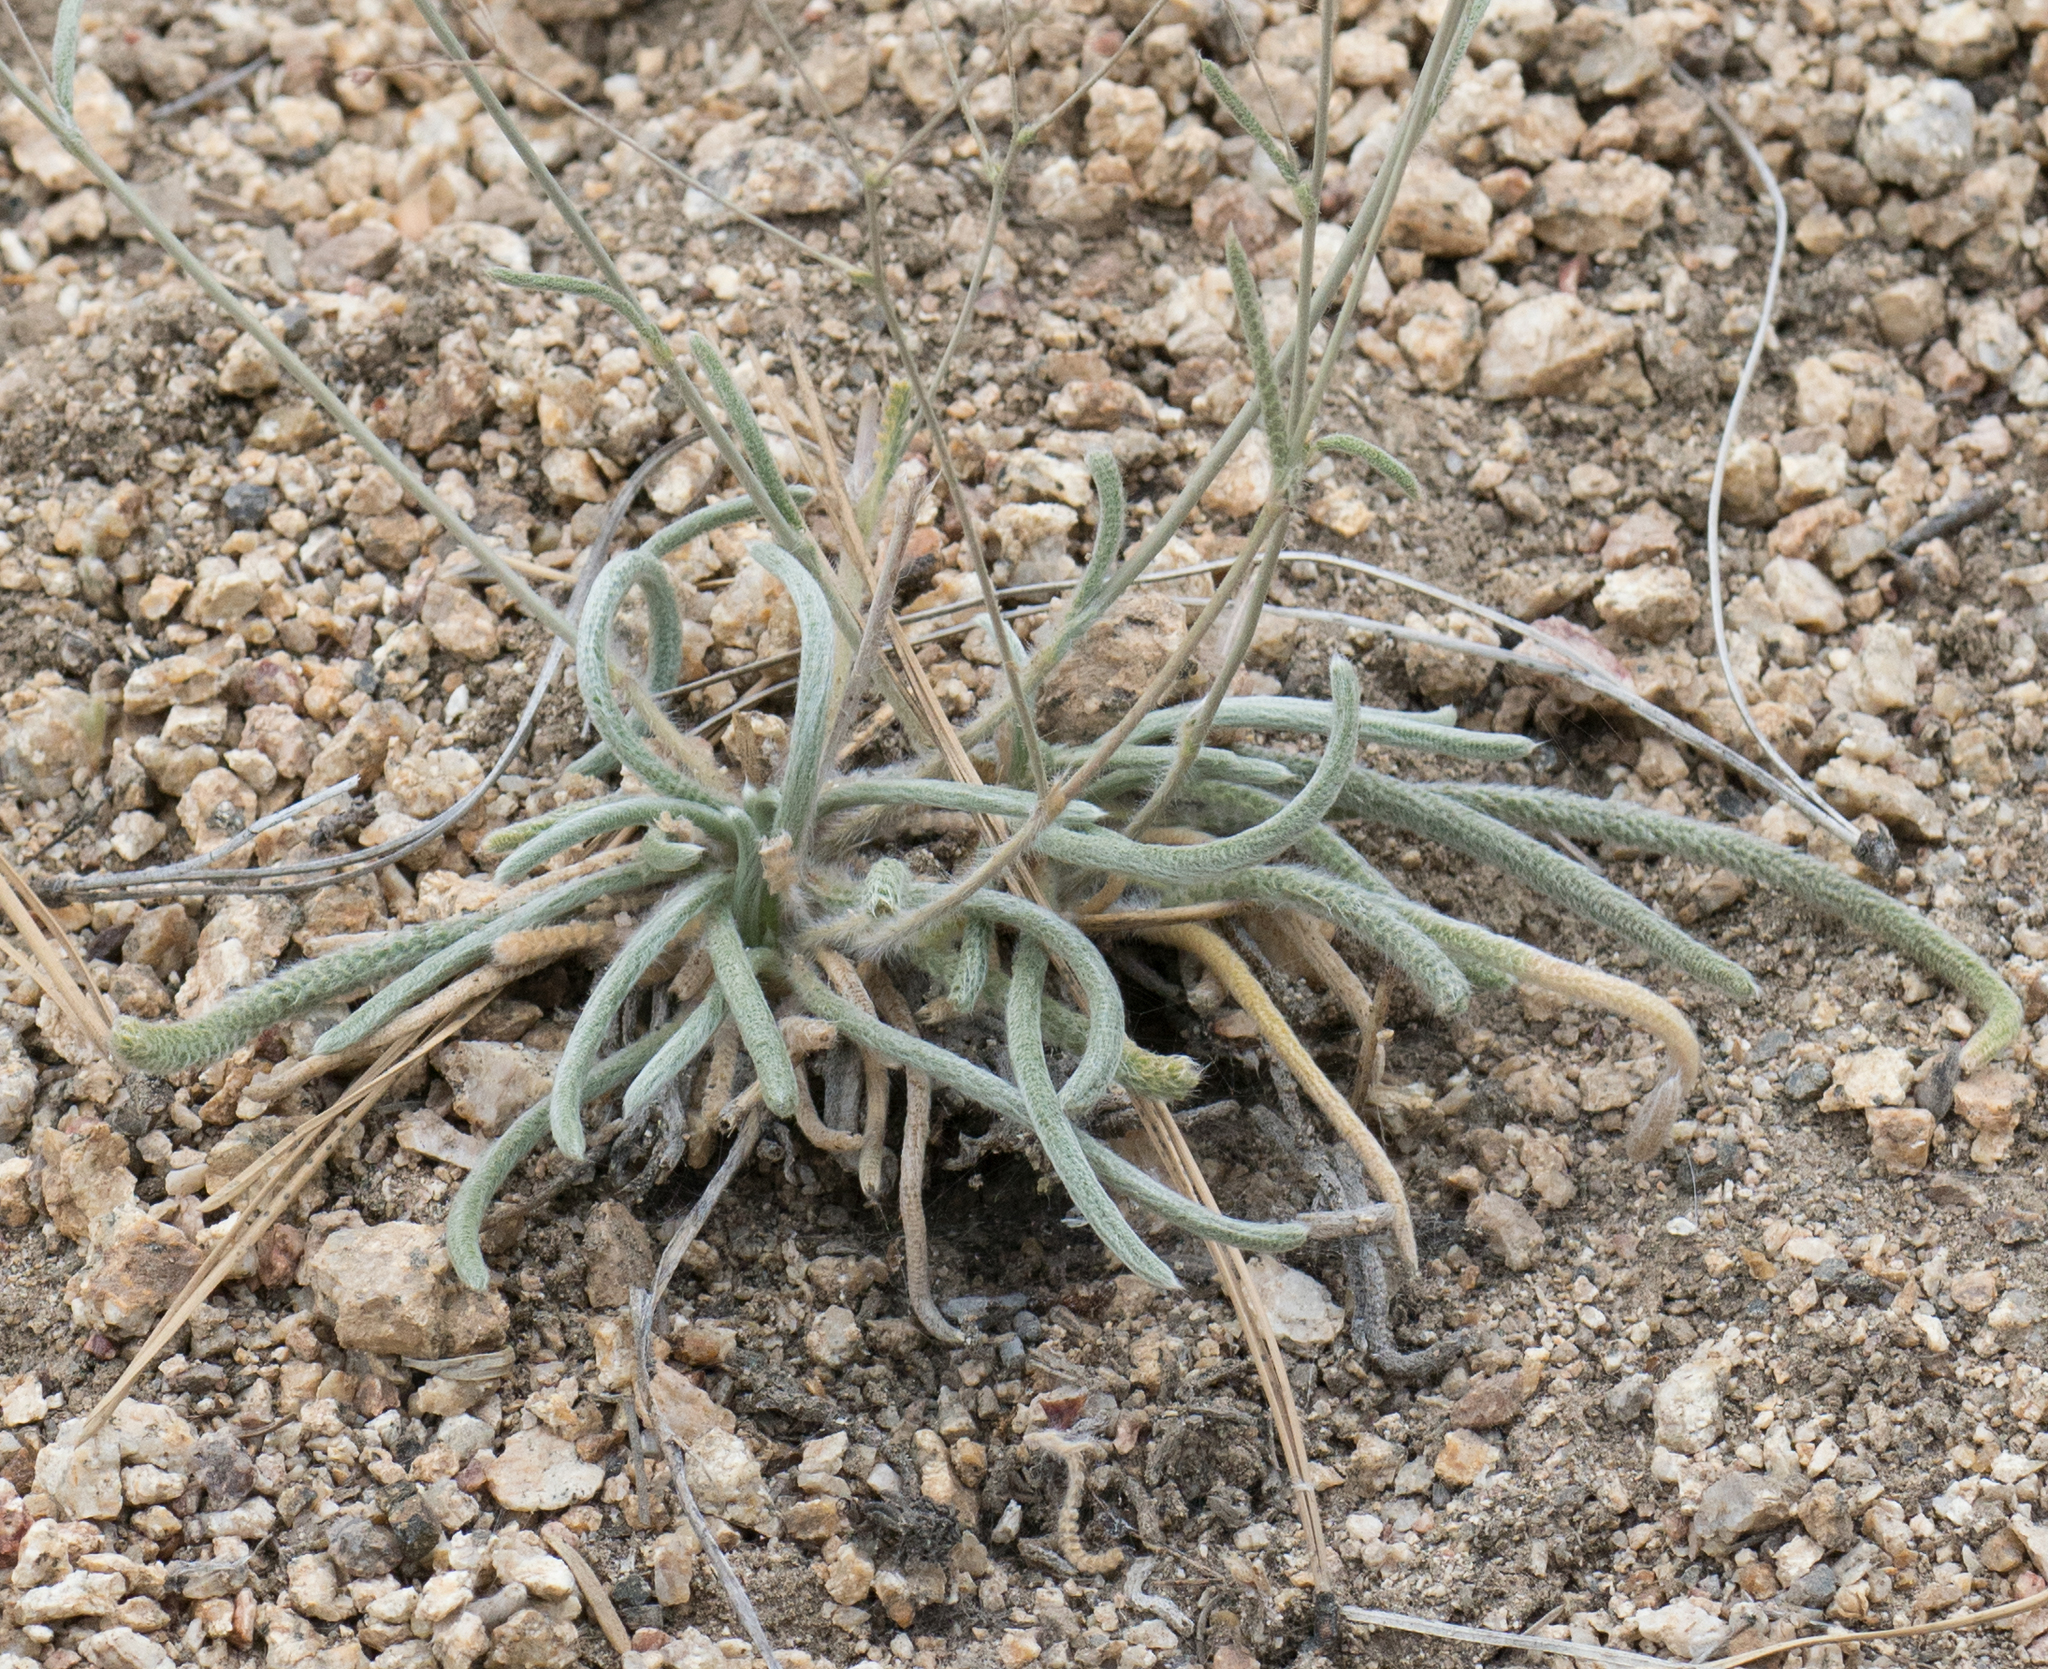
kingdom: Plantae
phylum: Tracheophyta
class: Magnoliopsida
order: Rosales
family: Rosaceae
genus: Potentilla
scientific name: Potentilla santolinoides
